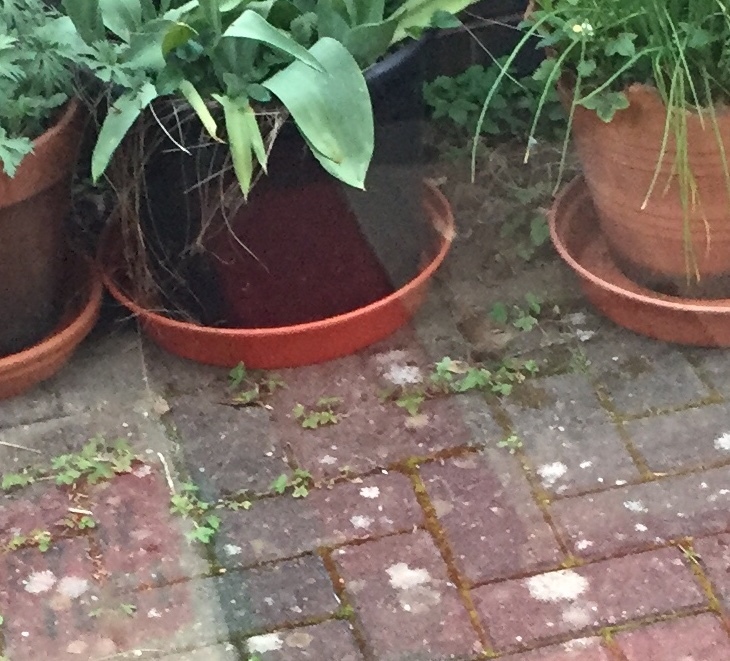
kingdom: Animalia
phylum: Chordata
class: Aves
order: Passeriformes
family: Troglodytidae
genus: Troglodytes
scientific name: Troglodytes troglodytes
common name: Eurasian wren
